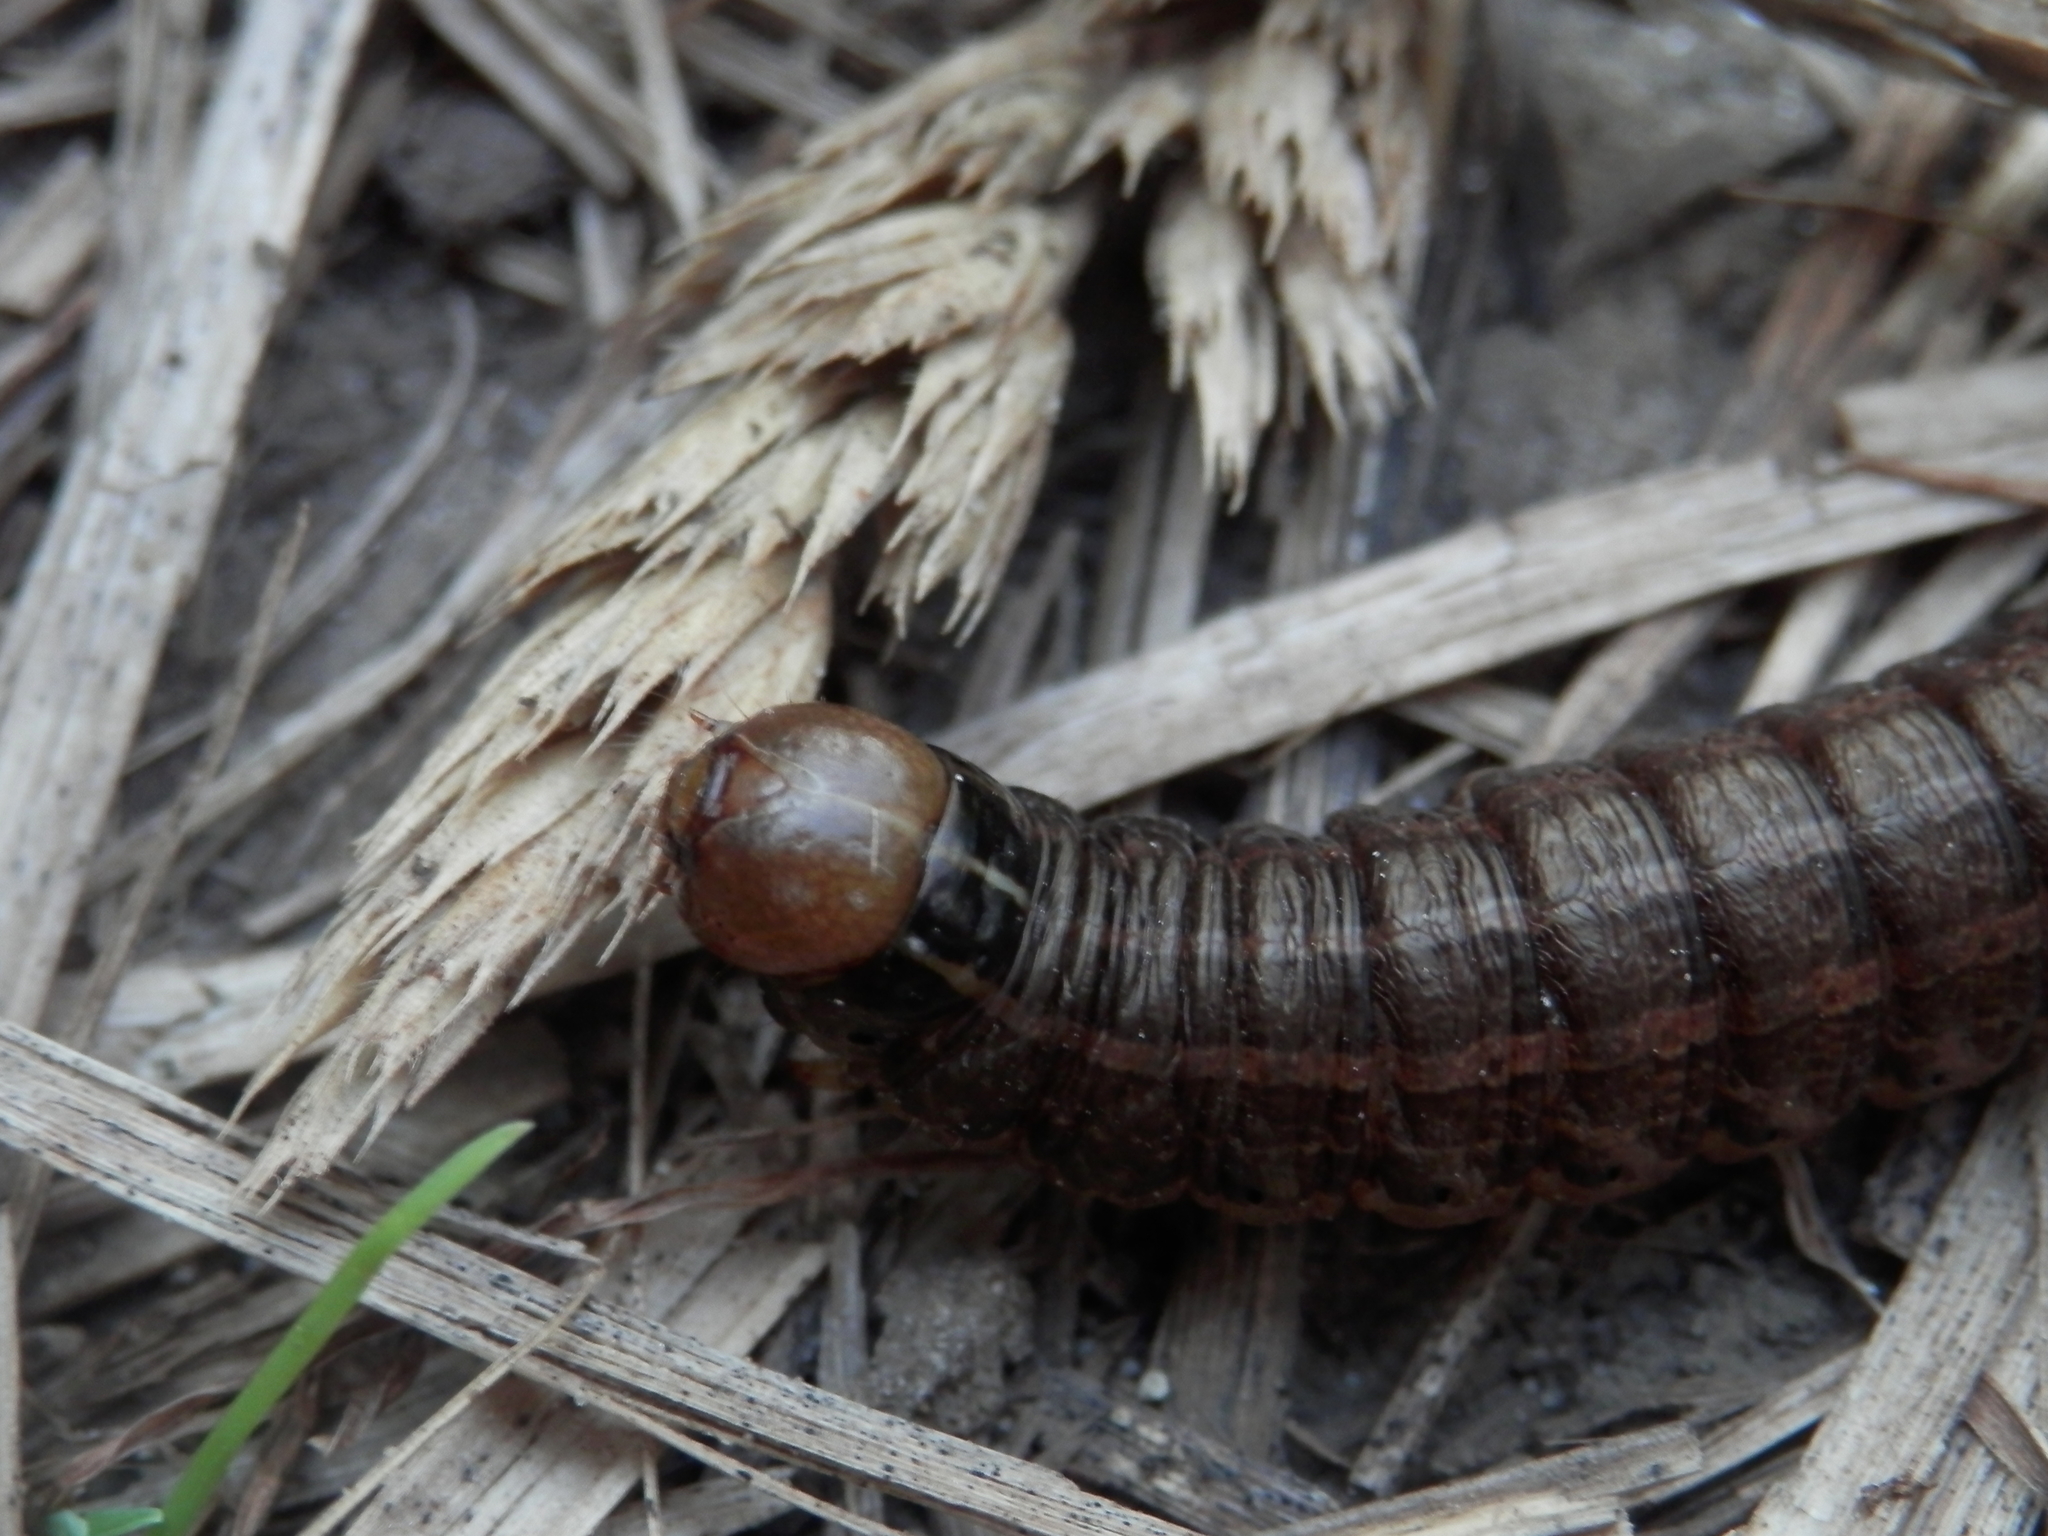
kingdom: Animalia
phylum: Arthropoda
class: Insecta
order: Lepidoptera
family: Noctuidae
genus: Nephelodes
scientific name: Nephelodes minians
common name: Bronzed cutworm
